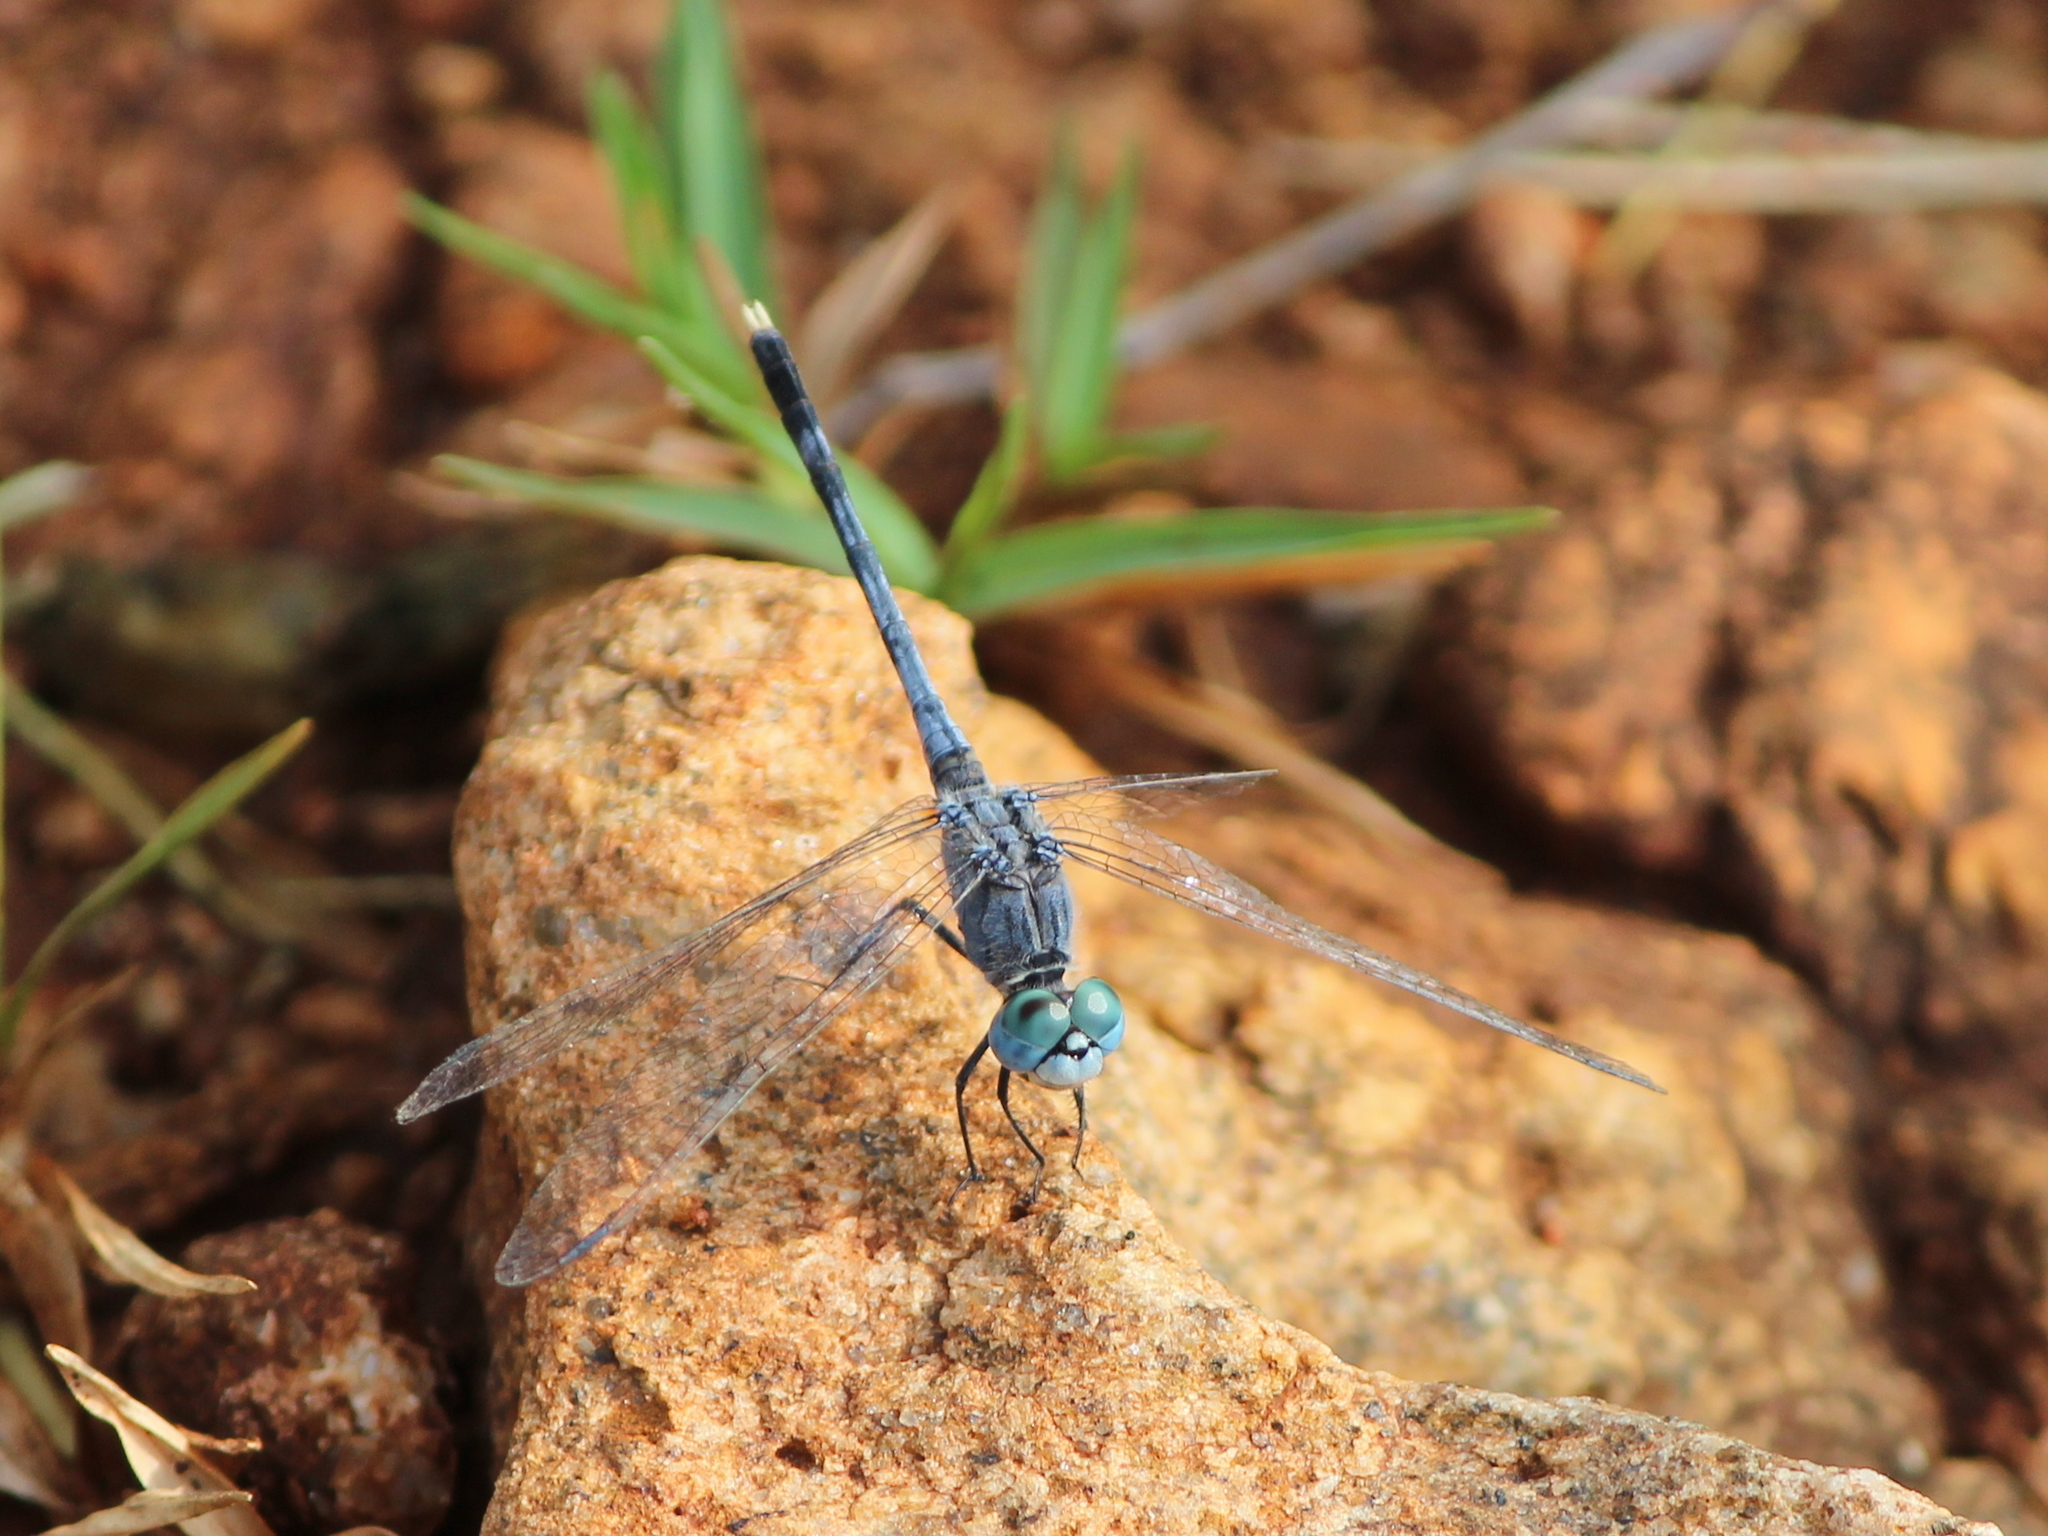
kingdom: Animalia
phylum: Arthropoda
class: Insecta
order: Odonata
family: Libellulidae
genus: Diplacodes
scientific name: Diplacodes trivialis
